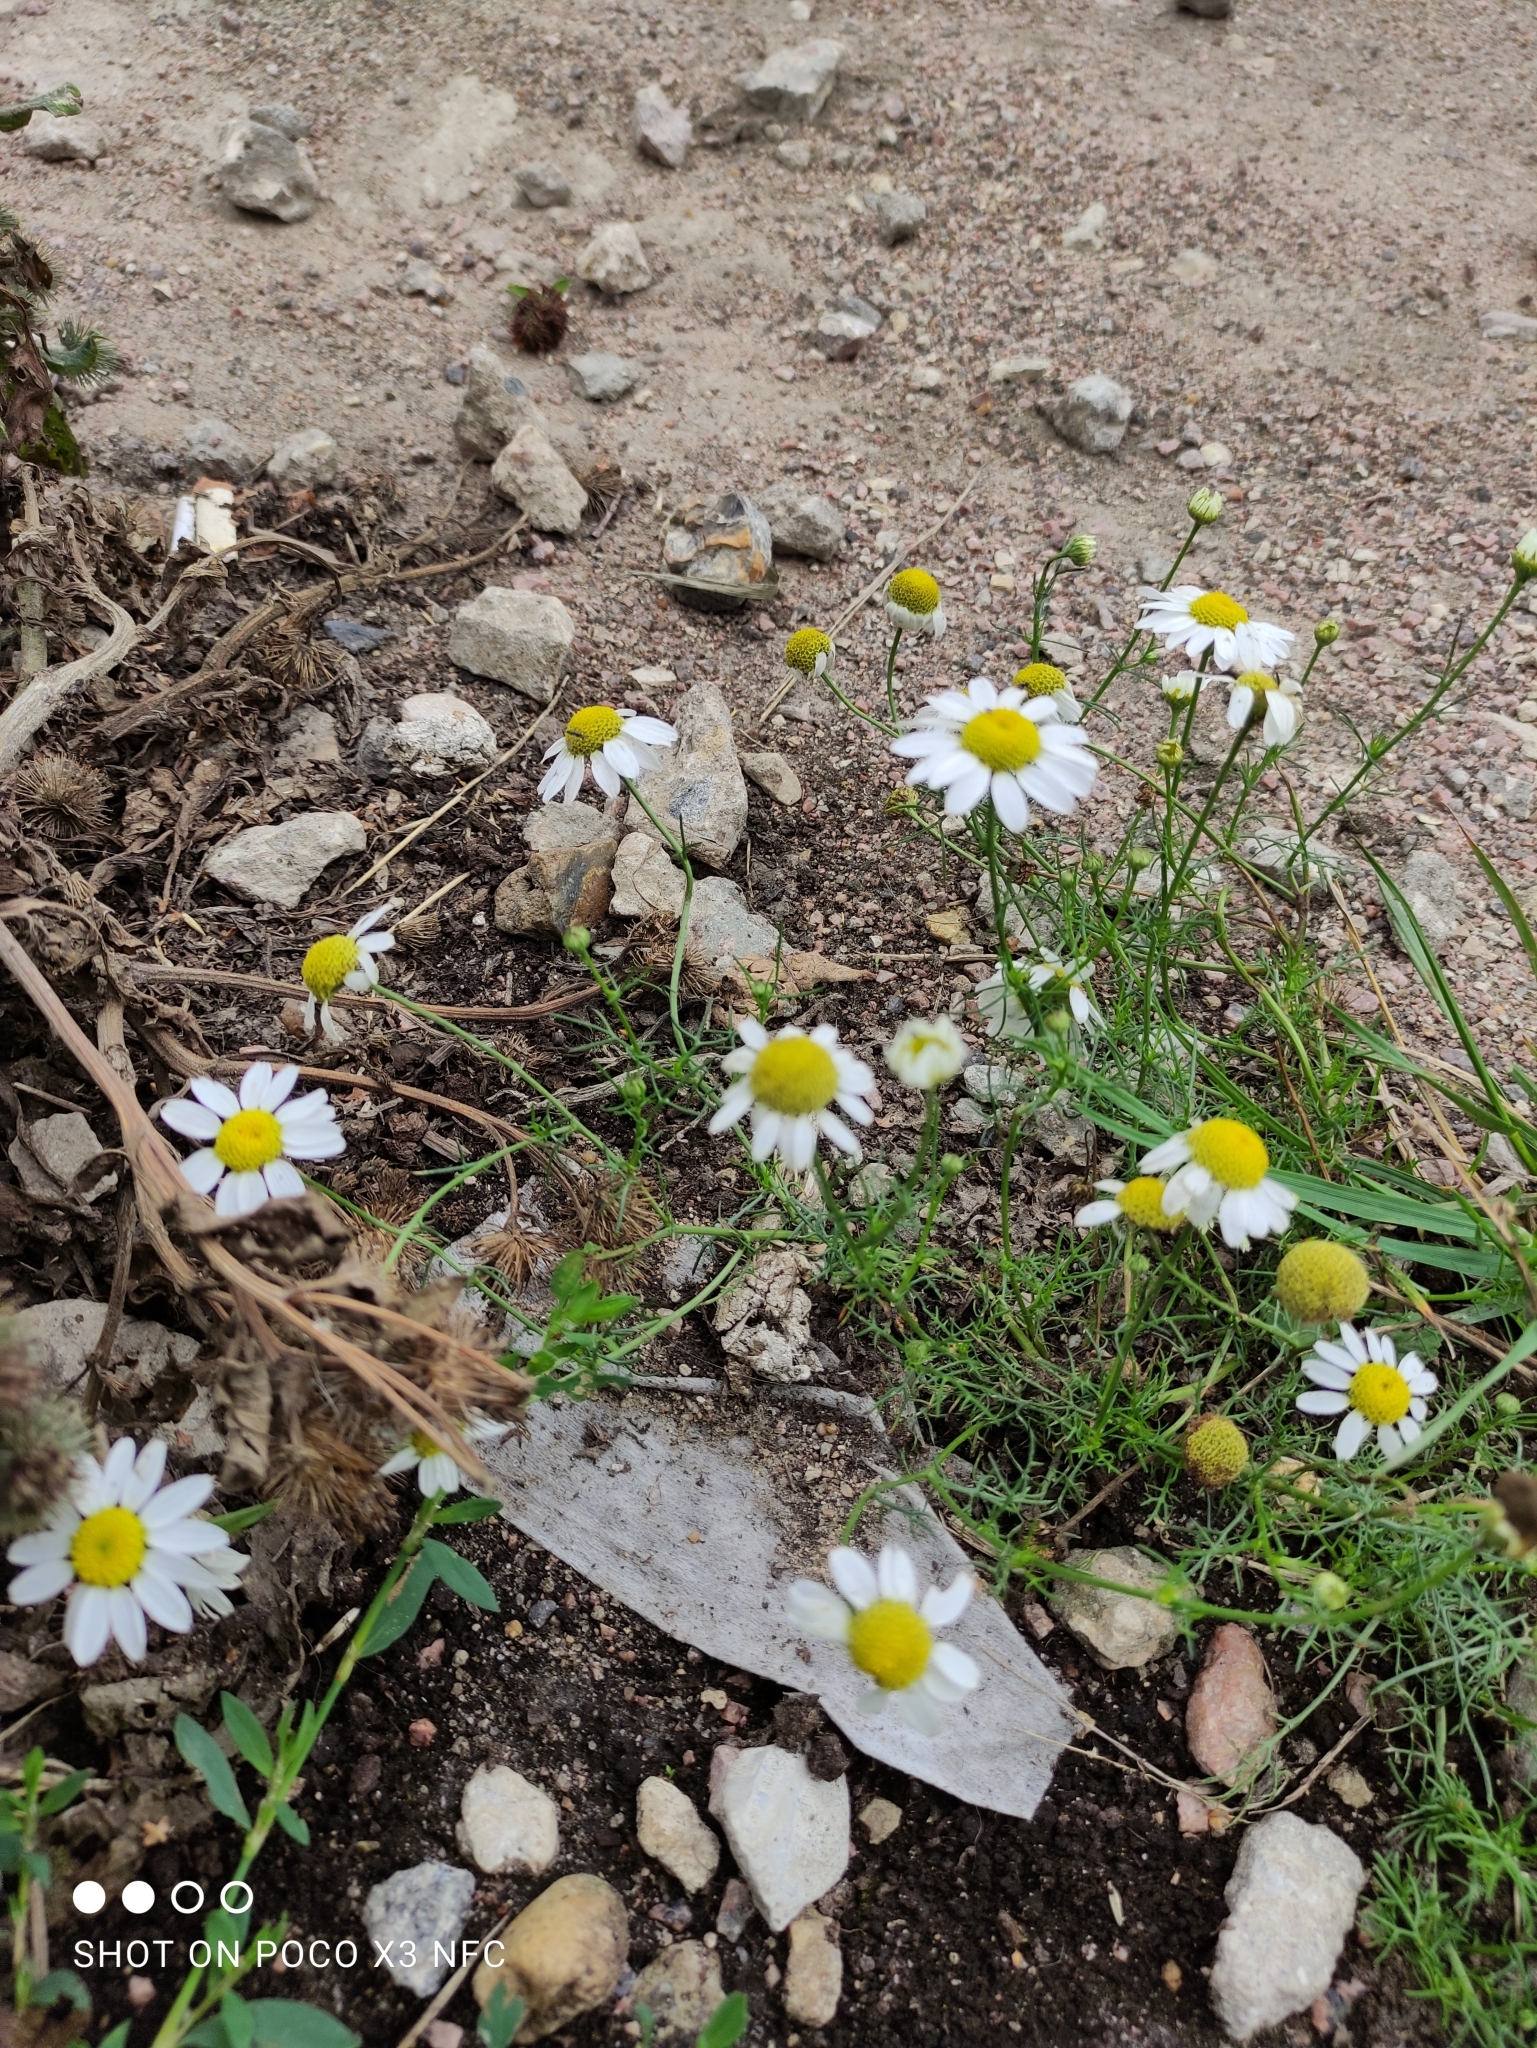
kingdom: Plantae
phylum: Tracheophyta
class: Magnoliopsida
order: Asterales
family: Asteraceae
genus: Tripleurospermum
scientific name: Tripleurospermum inodorum
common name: Scentless mayweed
